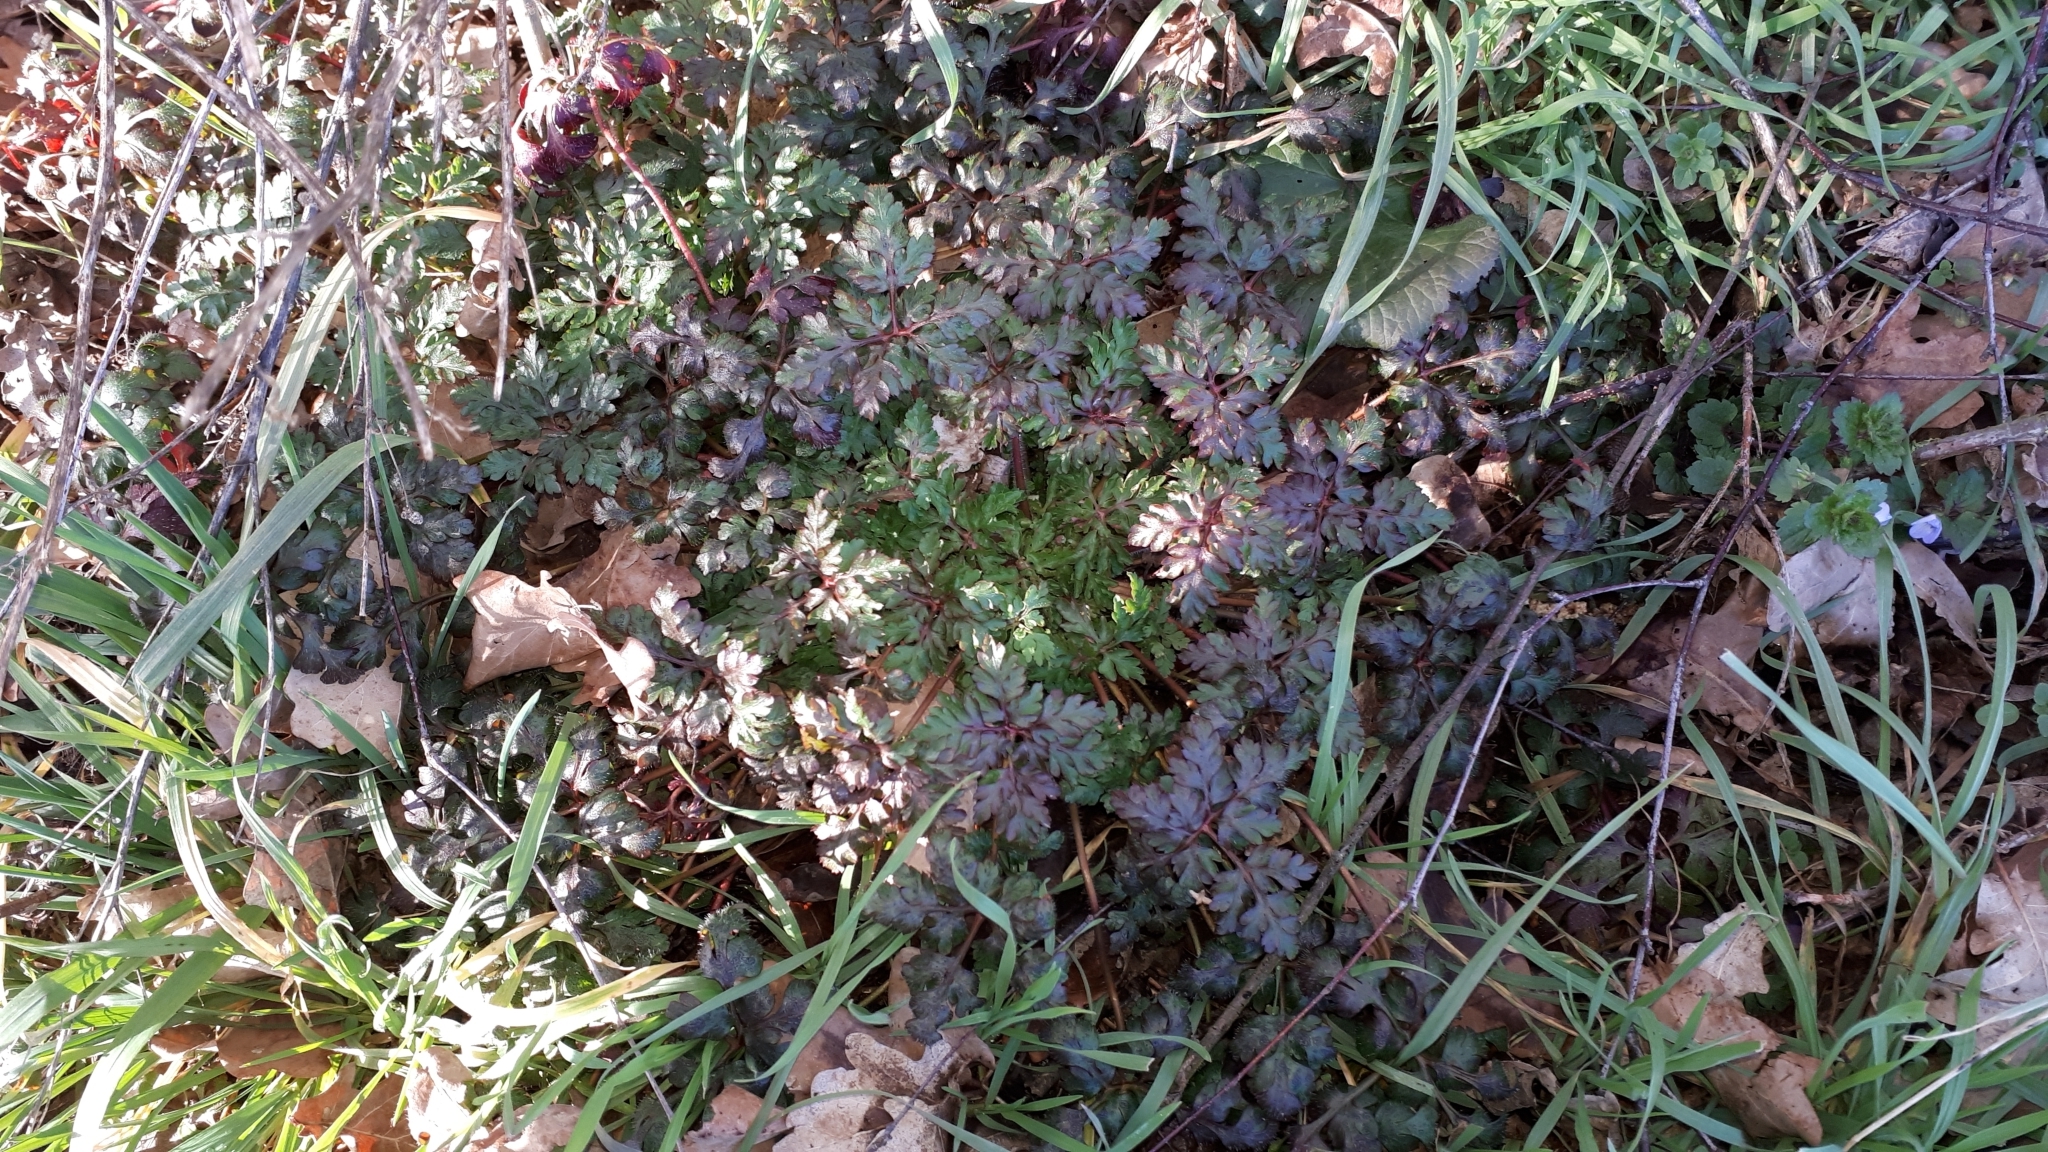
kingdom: Plantae
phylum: Tracheophyta
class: Magnoliopsida
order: Geraniales
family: Geraniaceae
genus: Geranium
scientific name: Geranium robertianum
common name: Herb-robert
